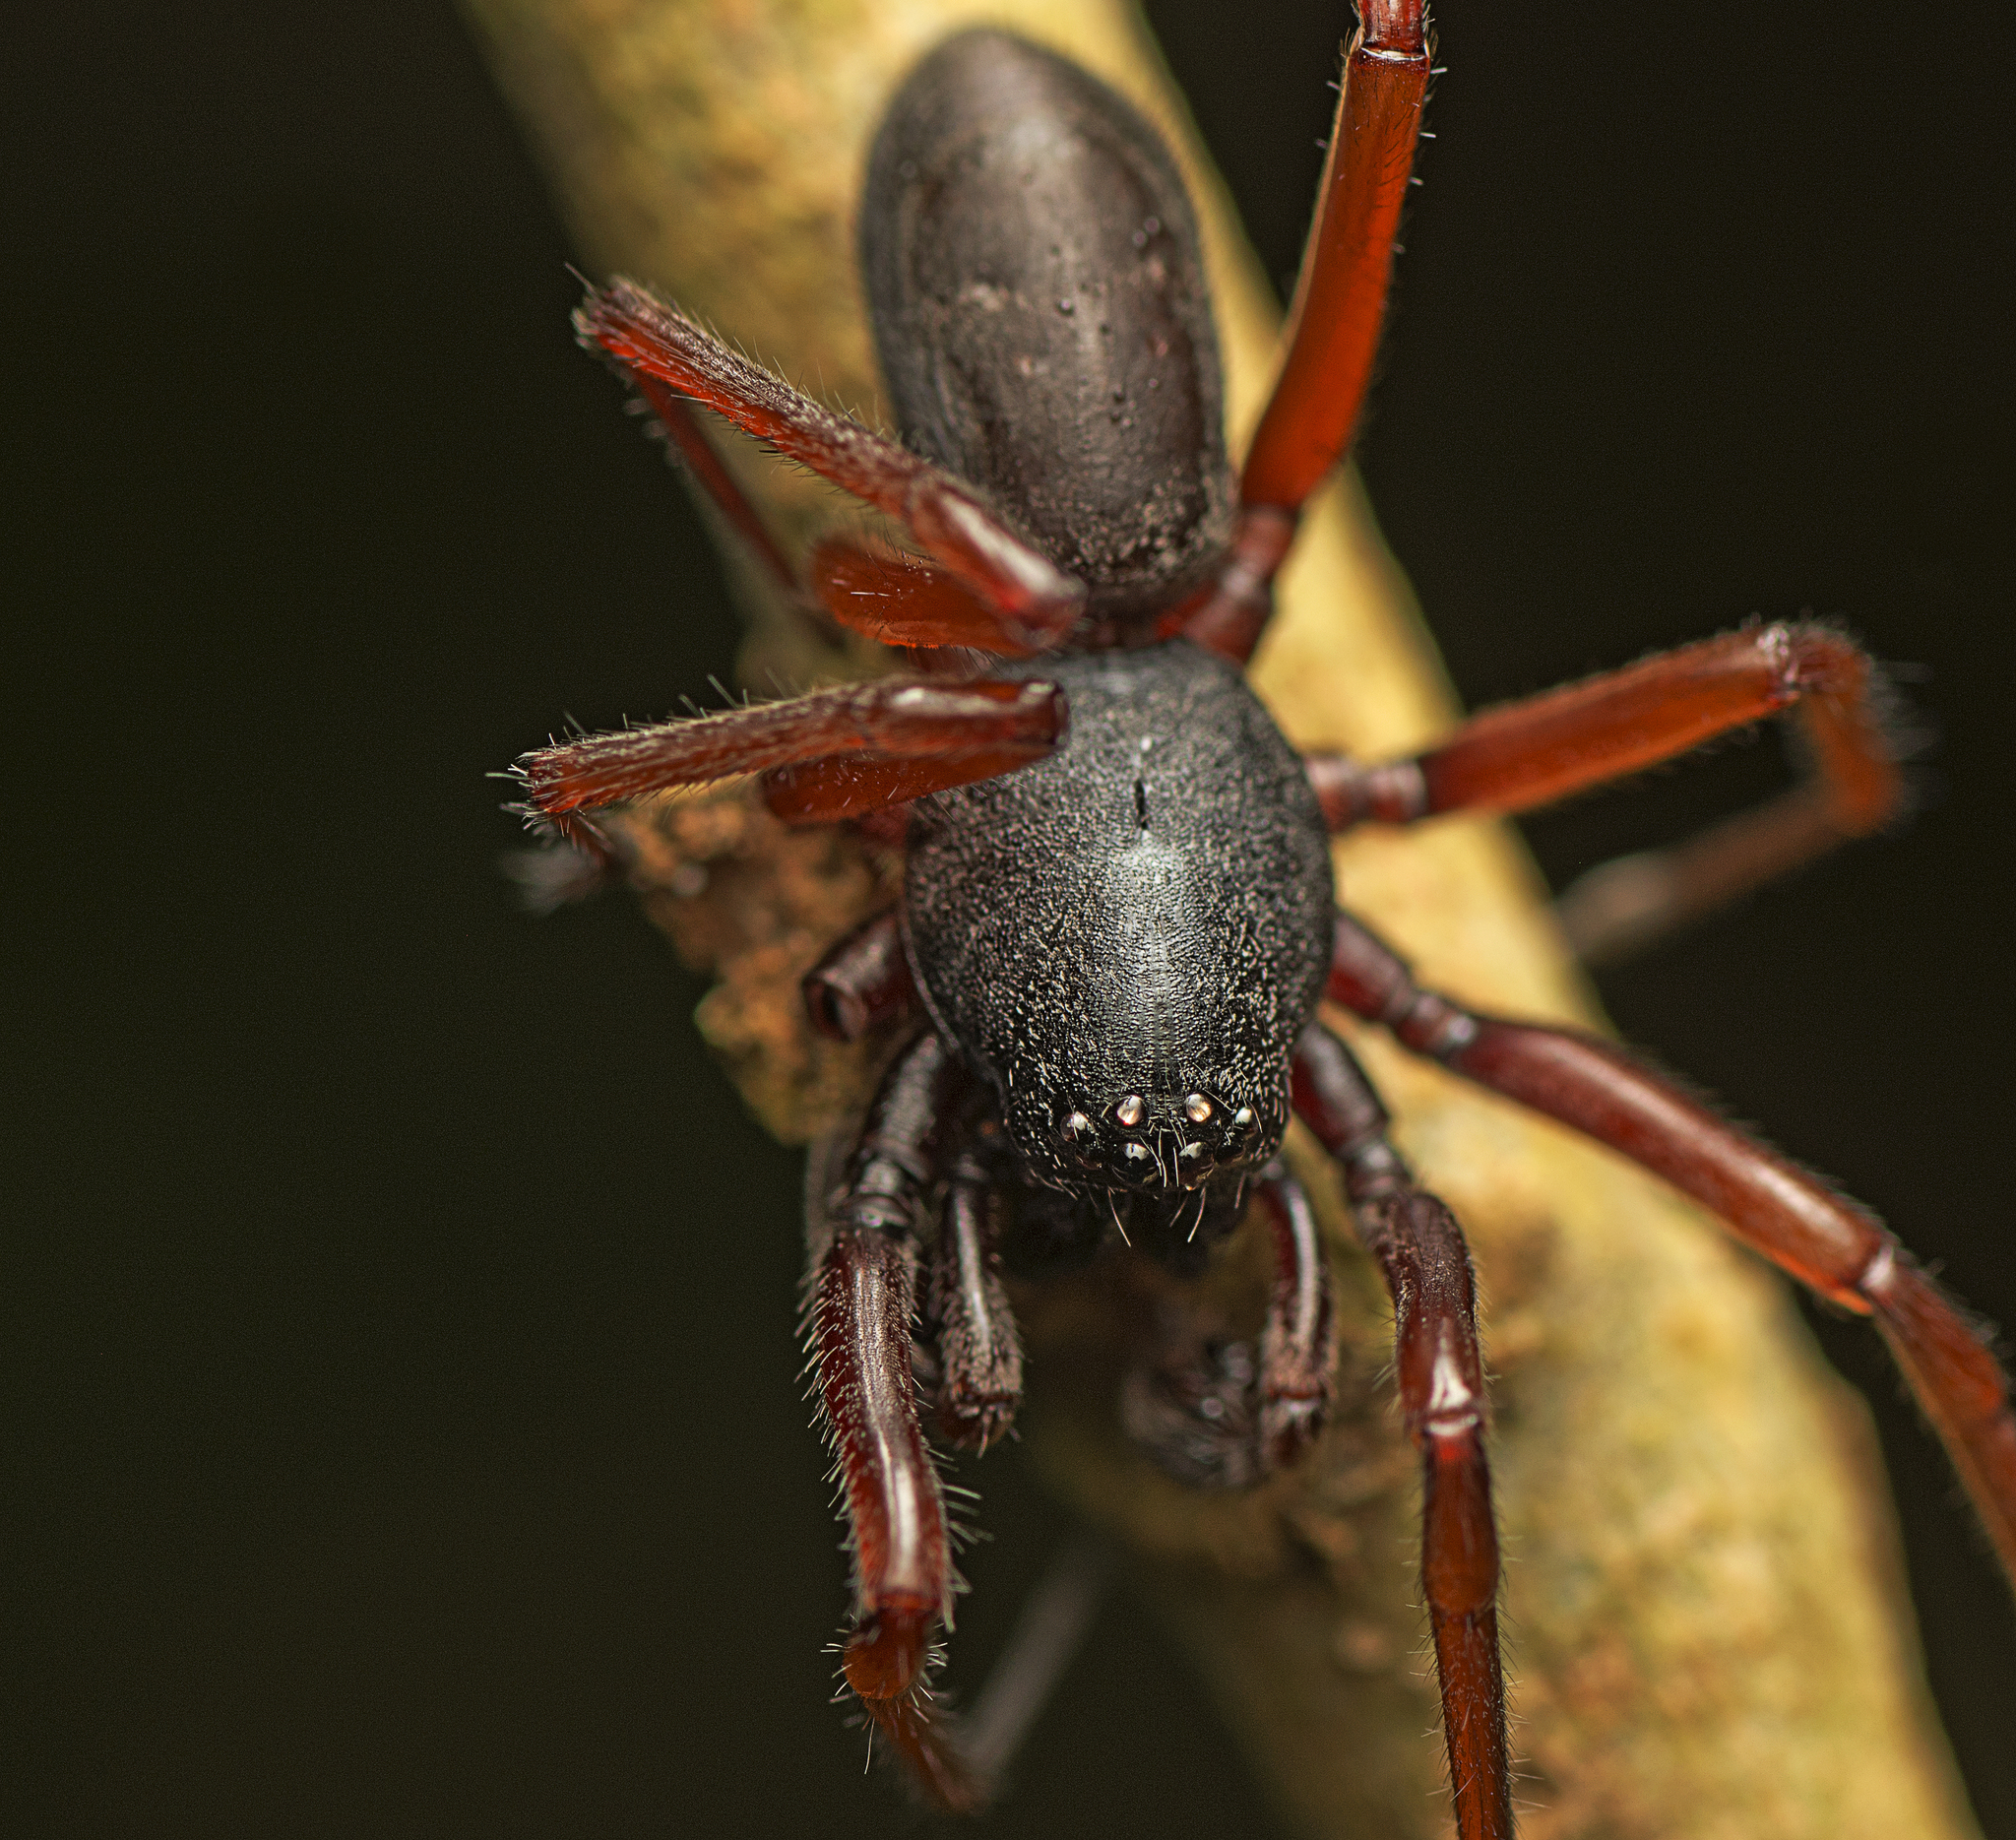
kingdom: Animalia
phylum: Arthropoda
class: Arachnida
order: Araneae
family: Lamponidae
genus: Centrothele
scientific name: Centrothele mutica
